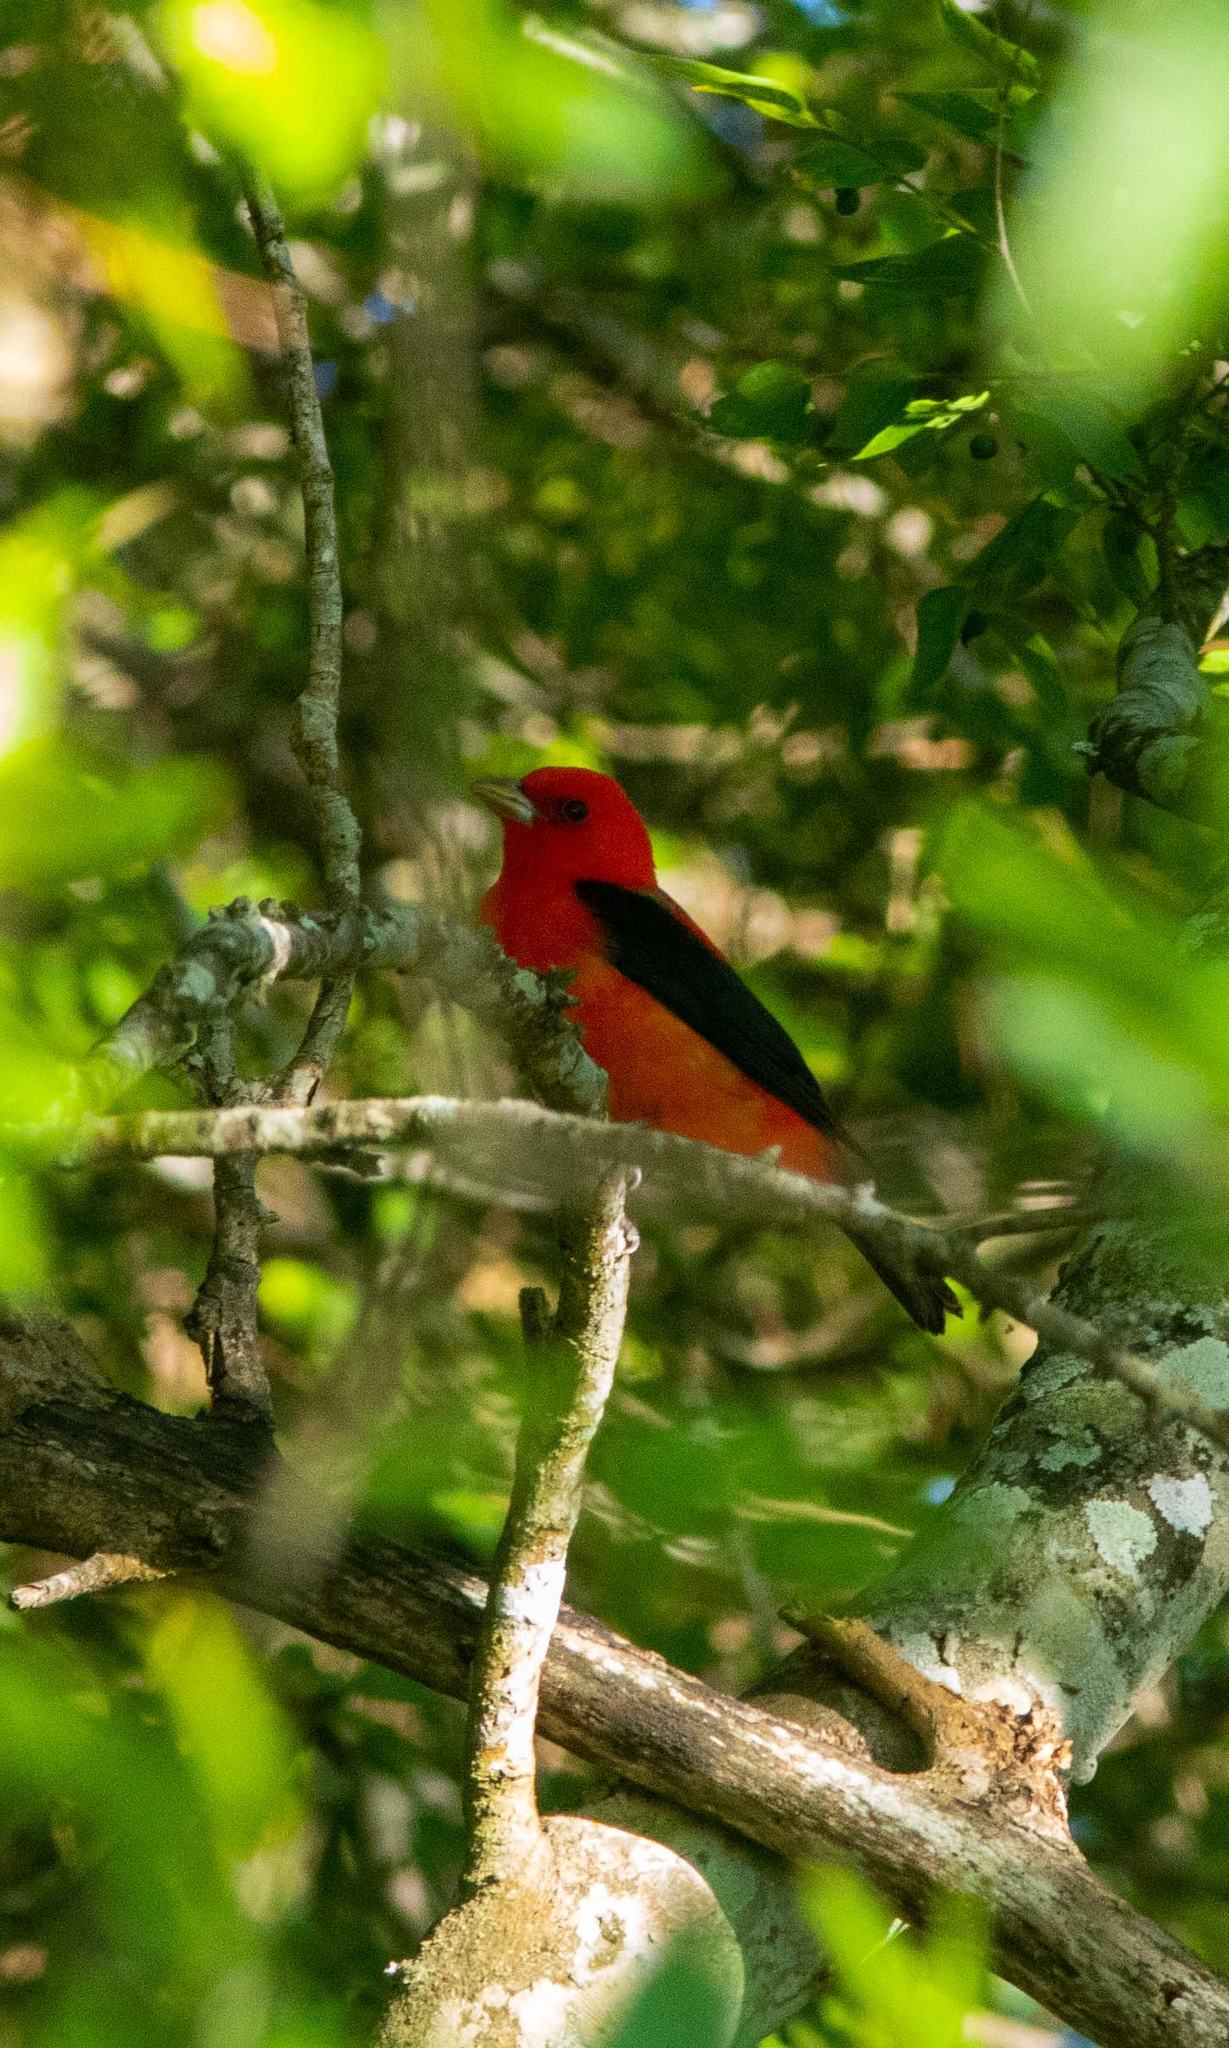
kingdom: Animalia
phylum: Chordata
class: Aves
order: Passeriformes
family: Cardinalidae
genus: Piranga
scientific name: Piranga olivacea
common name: Scarlet tanager
